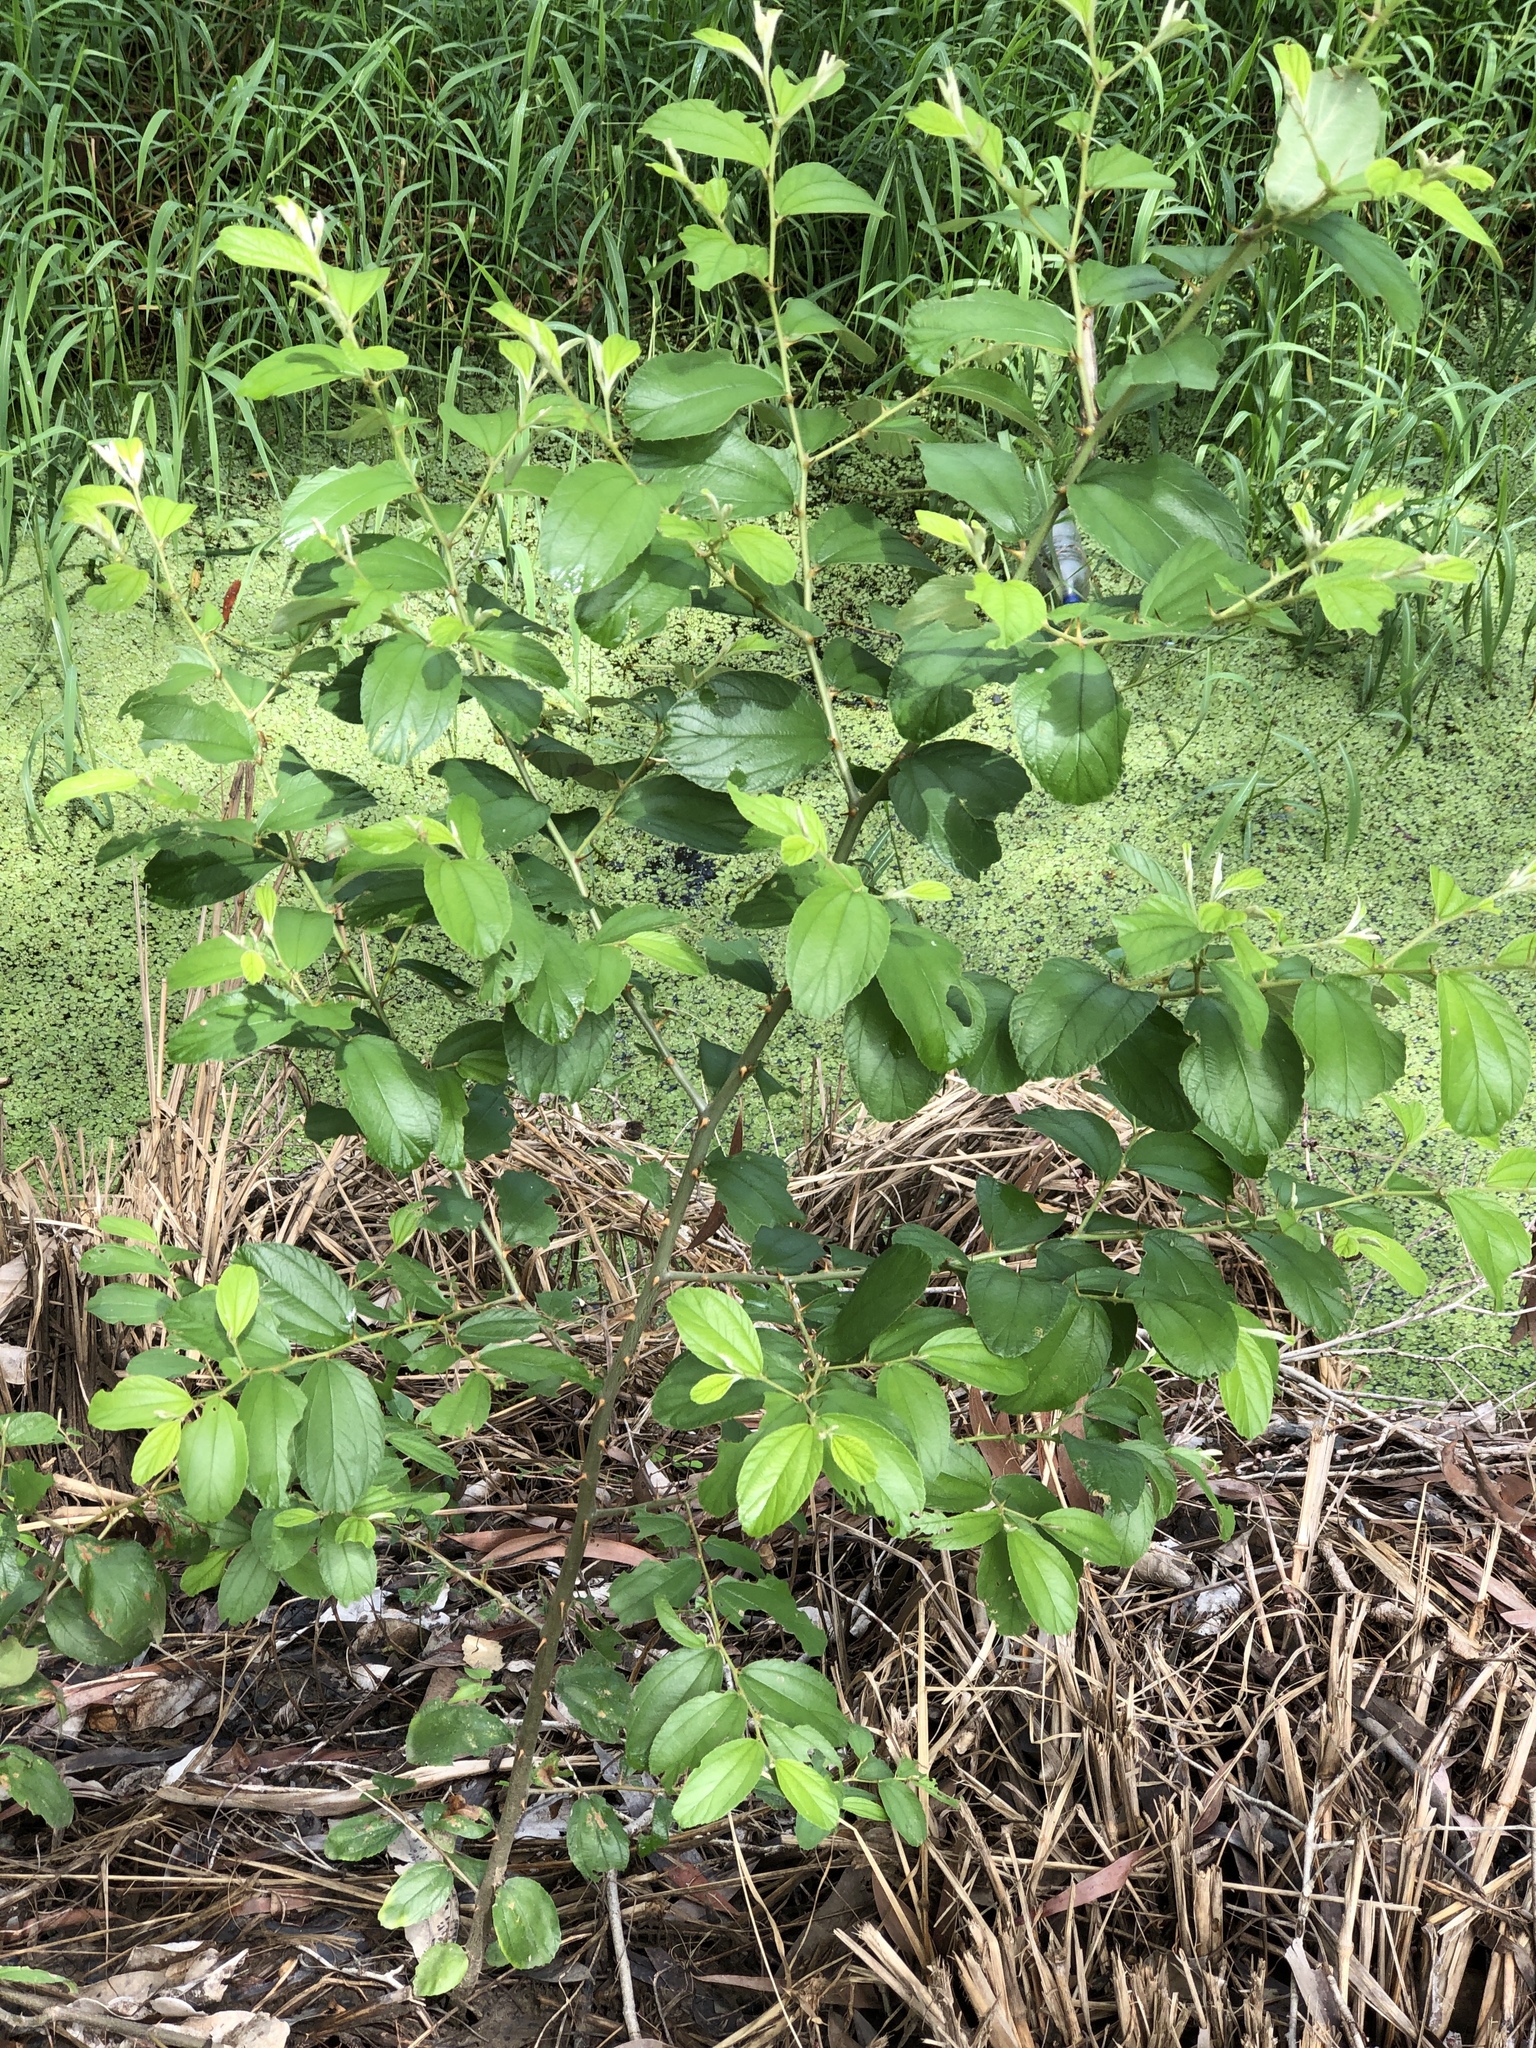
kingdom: Plantae
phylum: Tracheophyta
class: Magnoliopsida
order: Rosales
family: Rhamnaceae
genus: Ziziphus
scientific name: Ziziphus mauritiana
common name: Indian jujube
